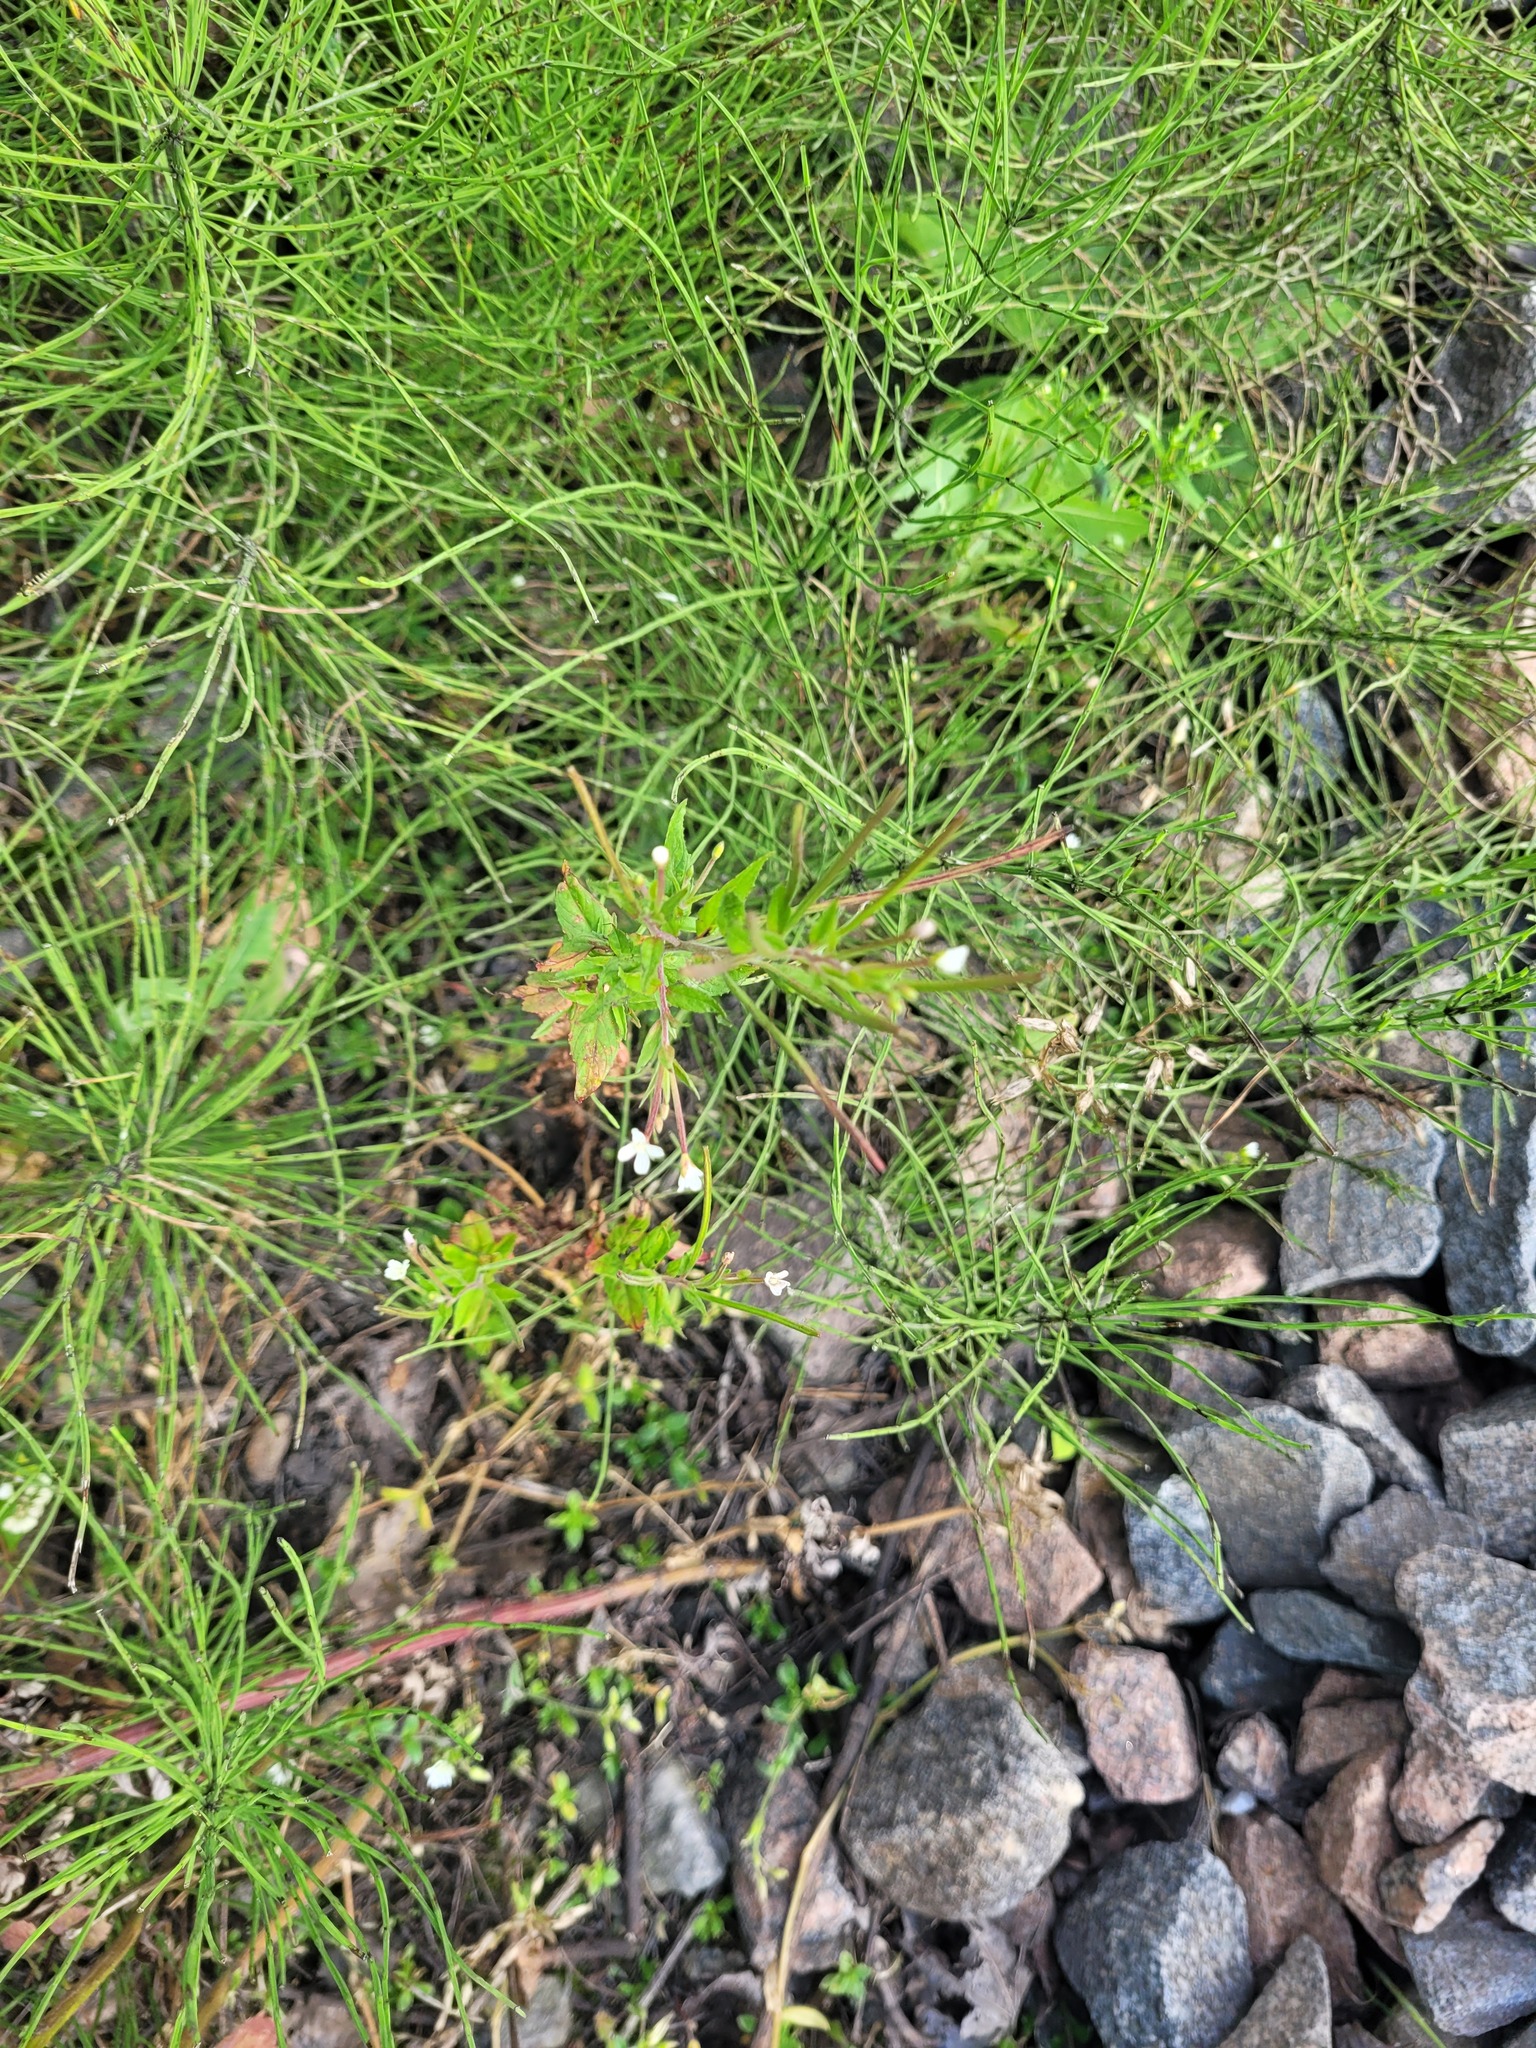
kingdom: Plantae
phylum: Tracheophyta
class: Magnoliopsida
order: Myrtales
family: Onagraceae
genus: Epilobium
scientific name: Epilobium pseudorubescens
